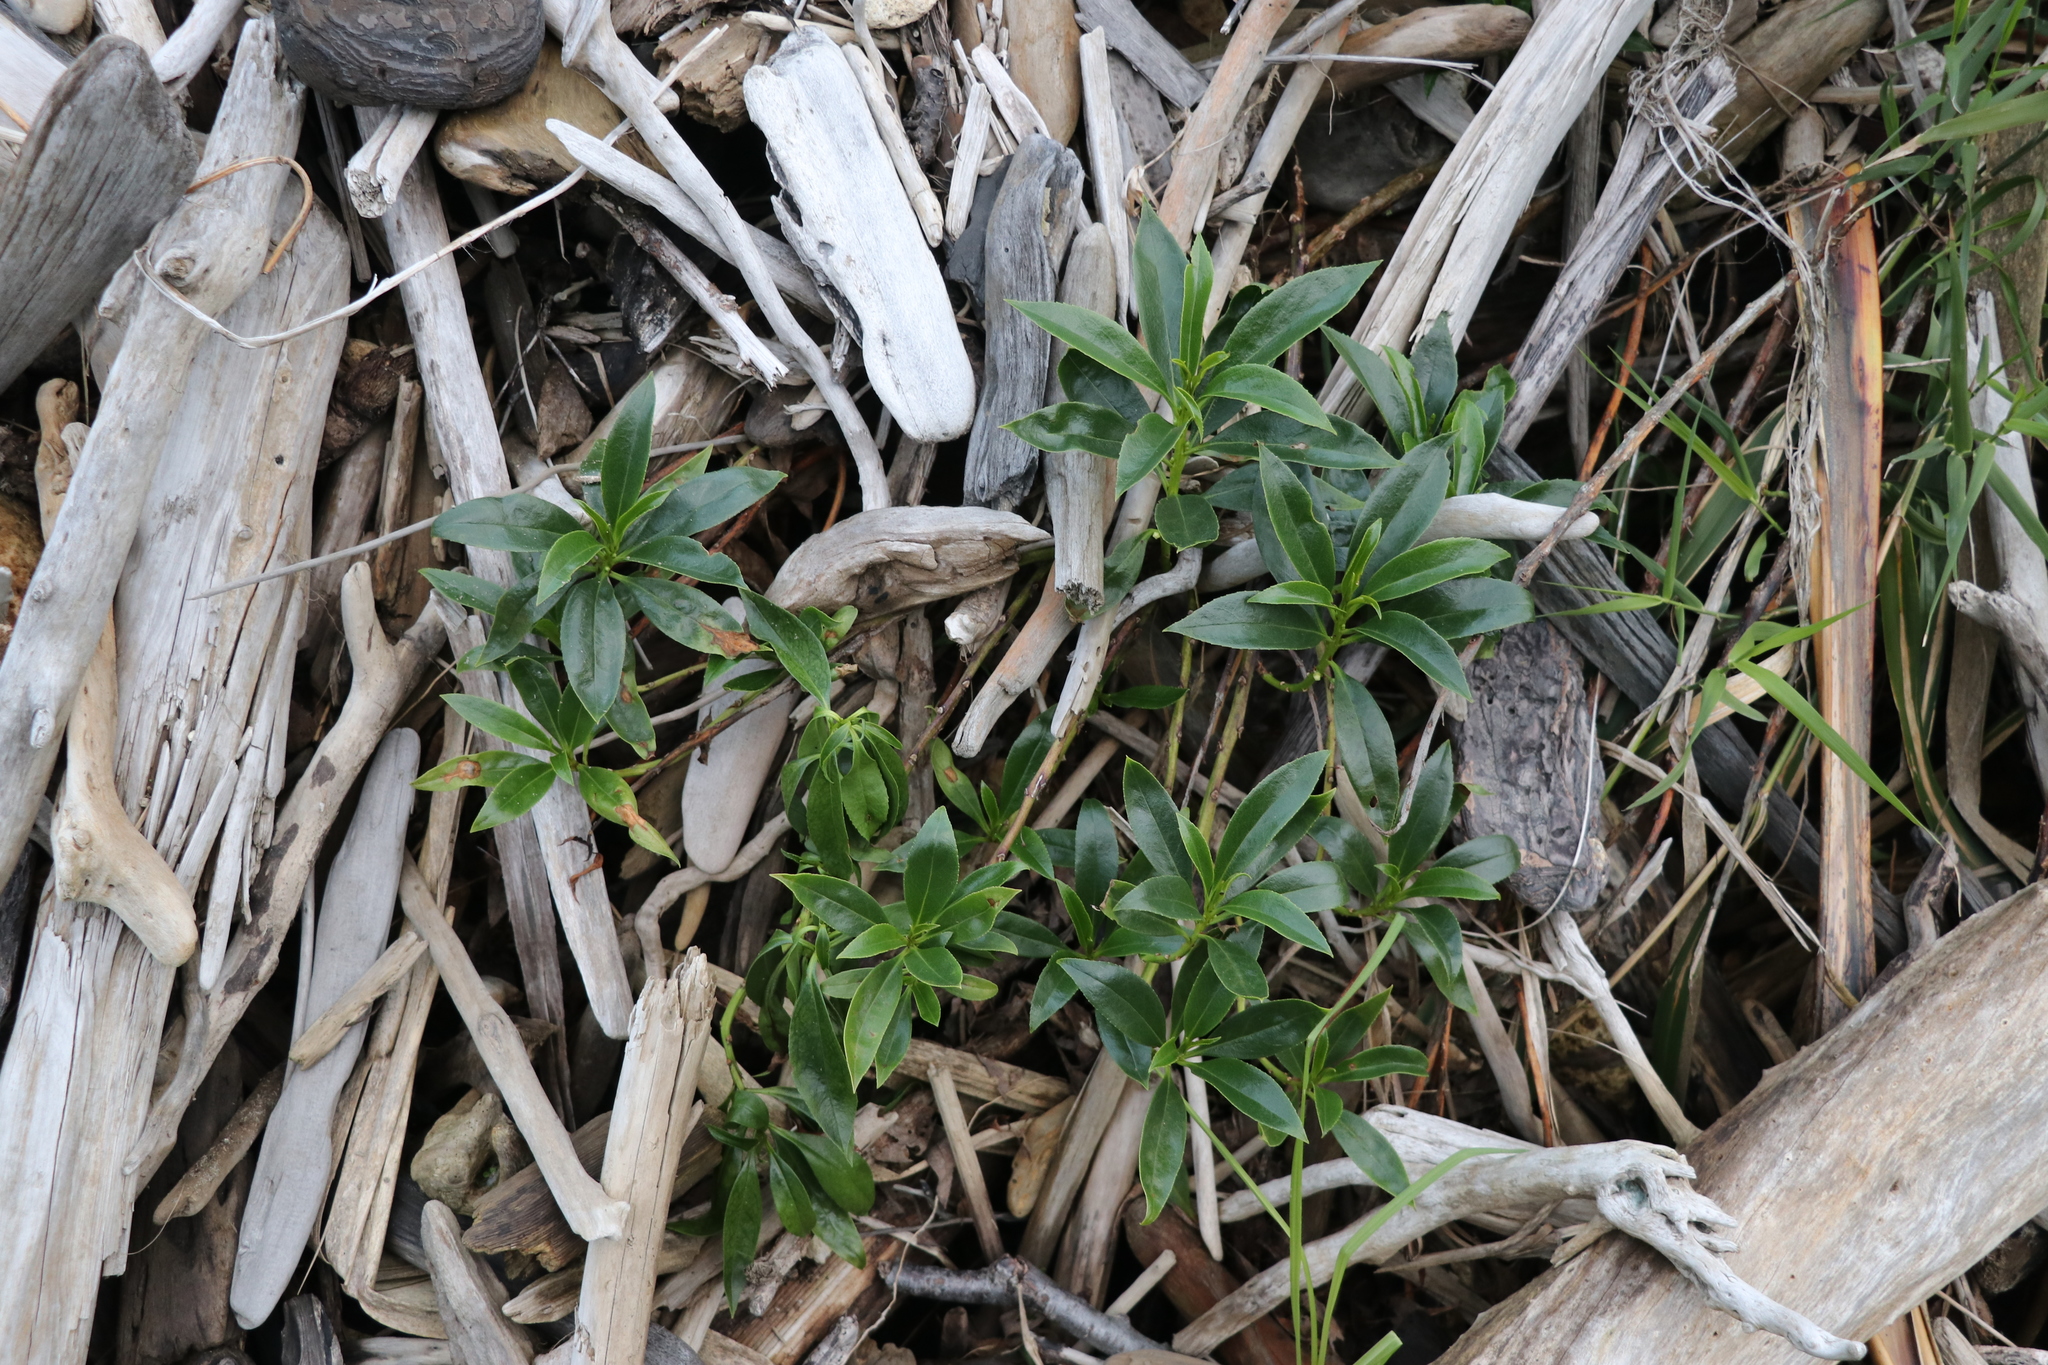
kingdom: Plantae
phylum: Tracheophyta
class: Magnoliopsida
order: Lamiales
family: Scrophulariaceae
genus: Myoporum
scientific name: Myoporum laetum
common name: Ngaio tree
